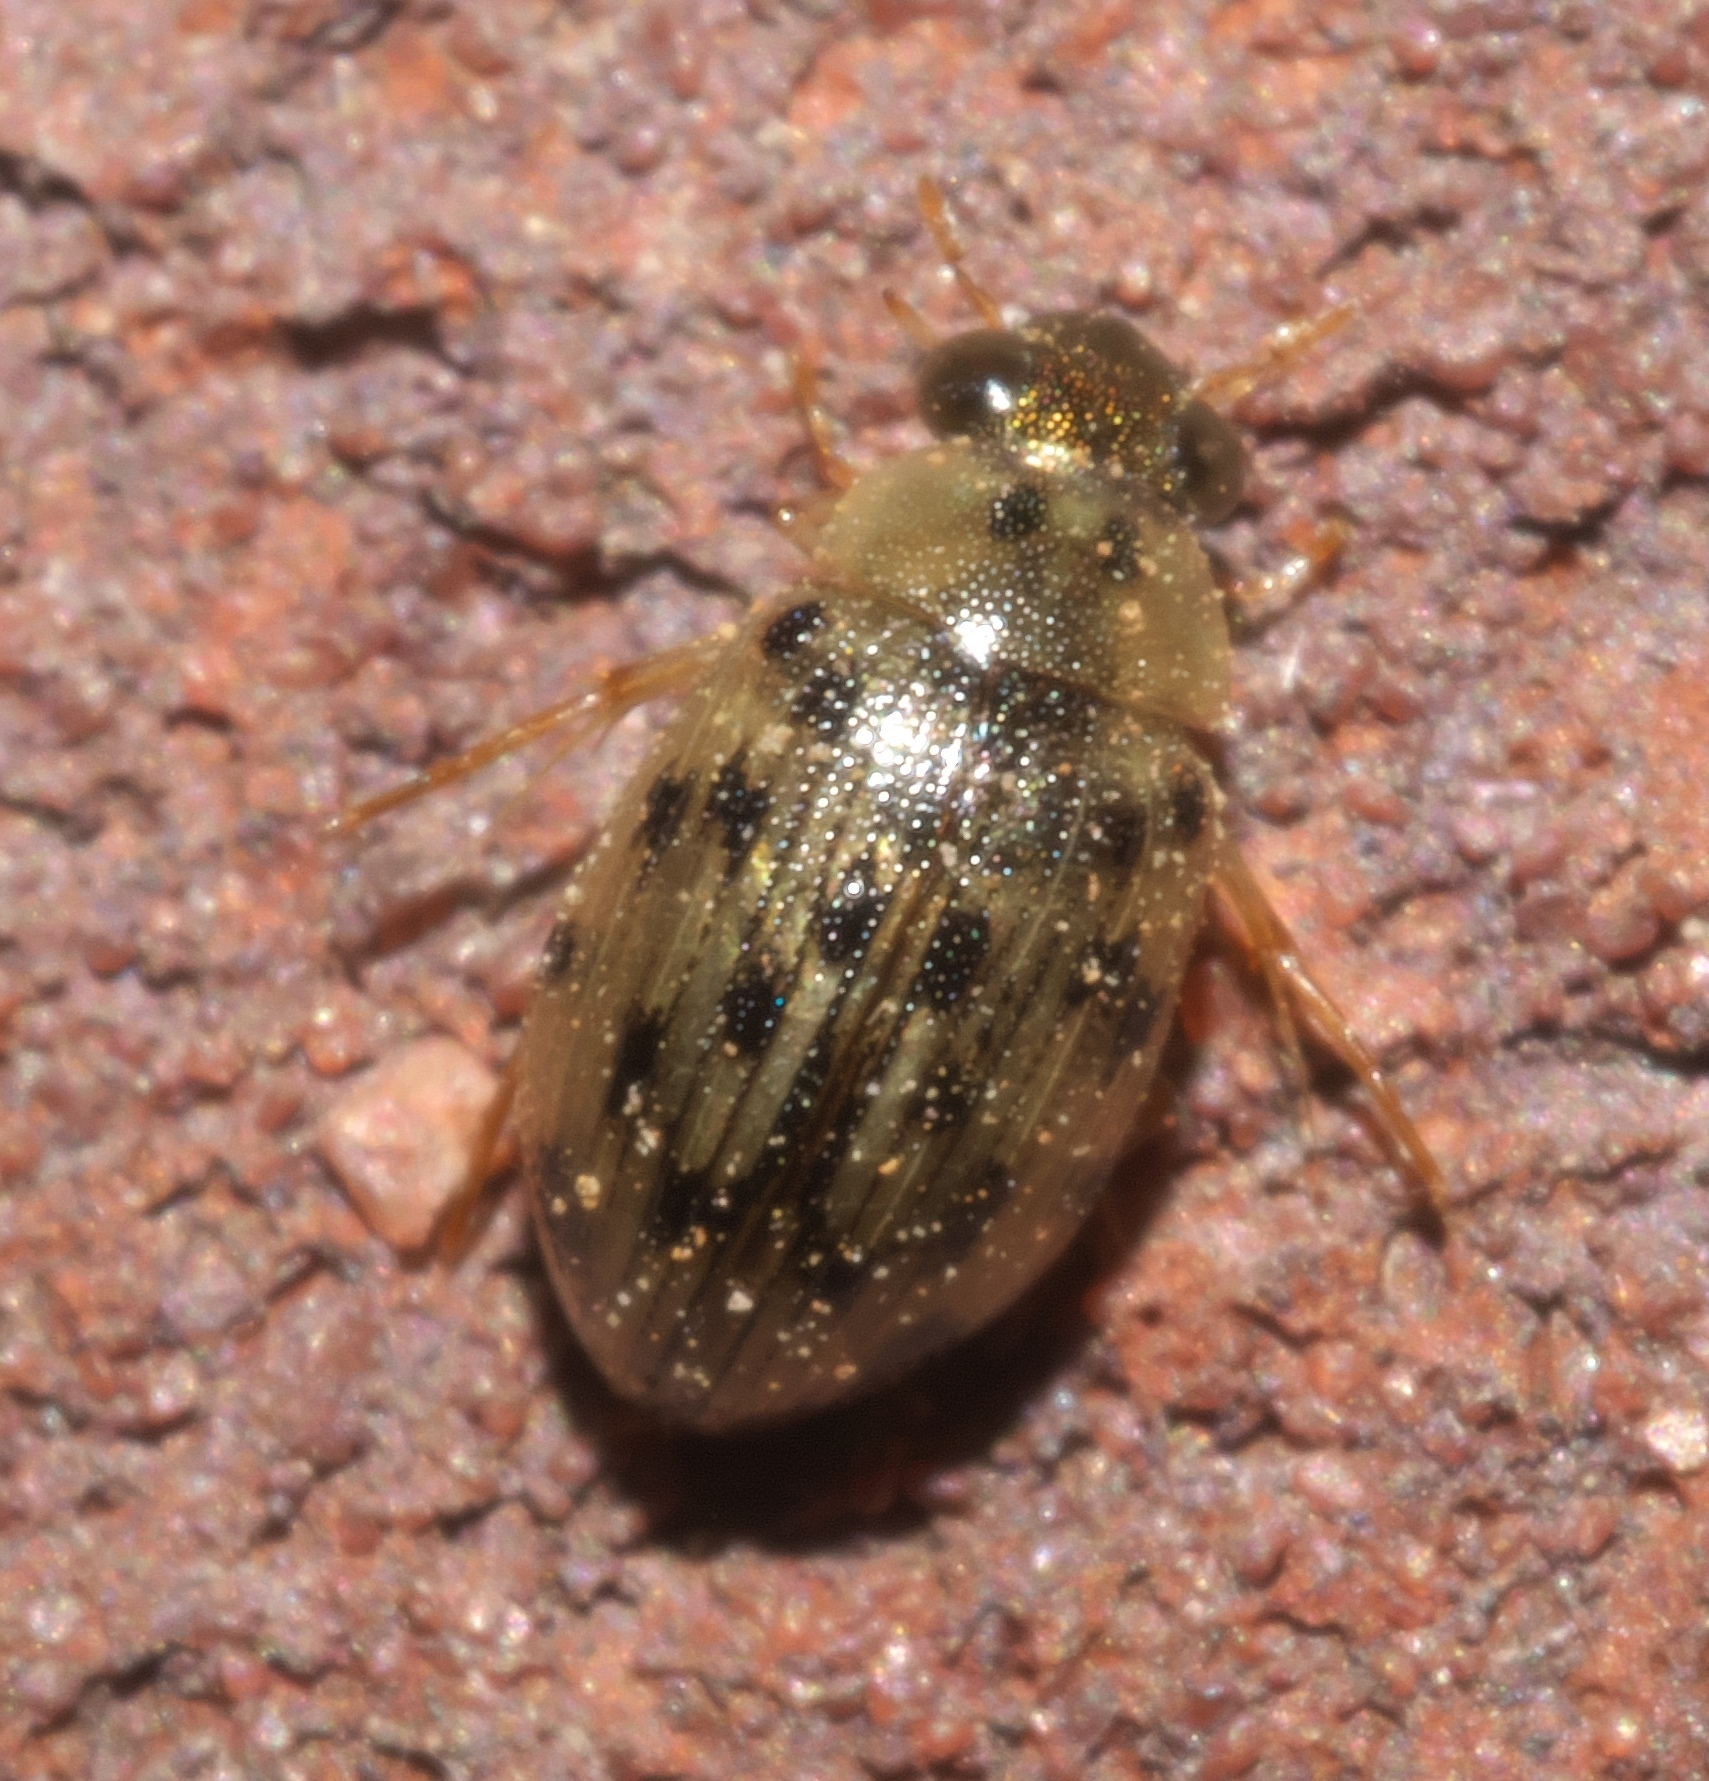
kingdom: Animalia
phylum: Arthropoda
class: Insecta
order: Coleoptera
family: Hydrophilidae
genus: Berosus
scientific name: Berosus pantherinus
